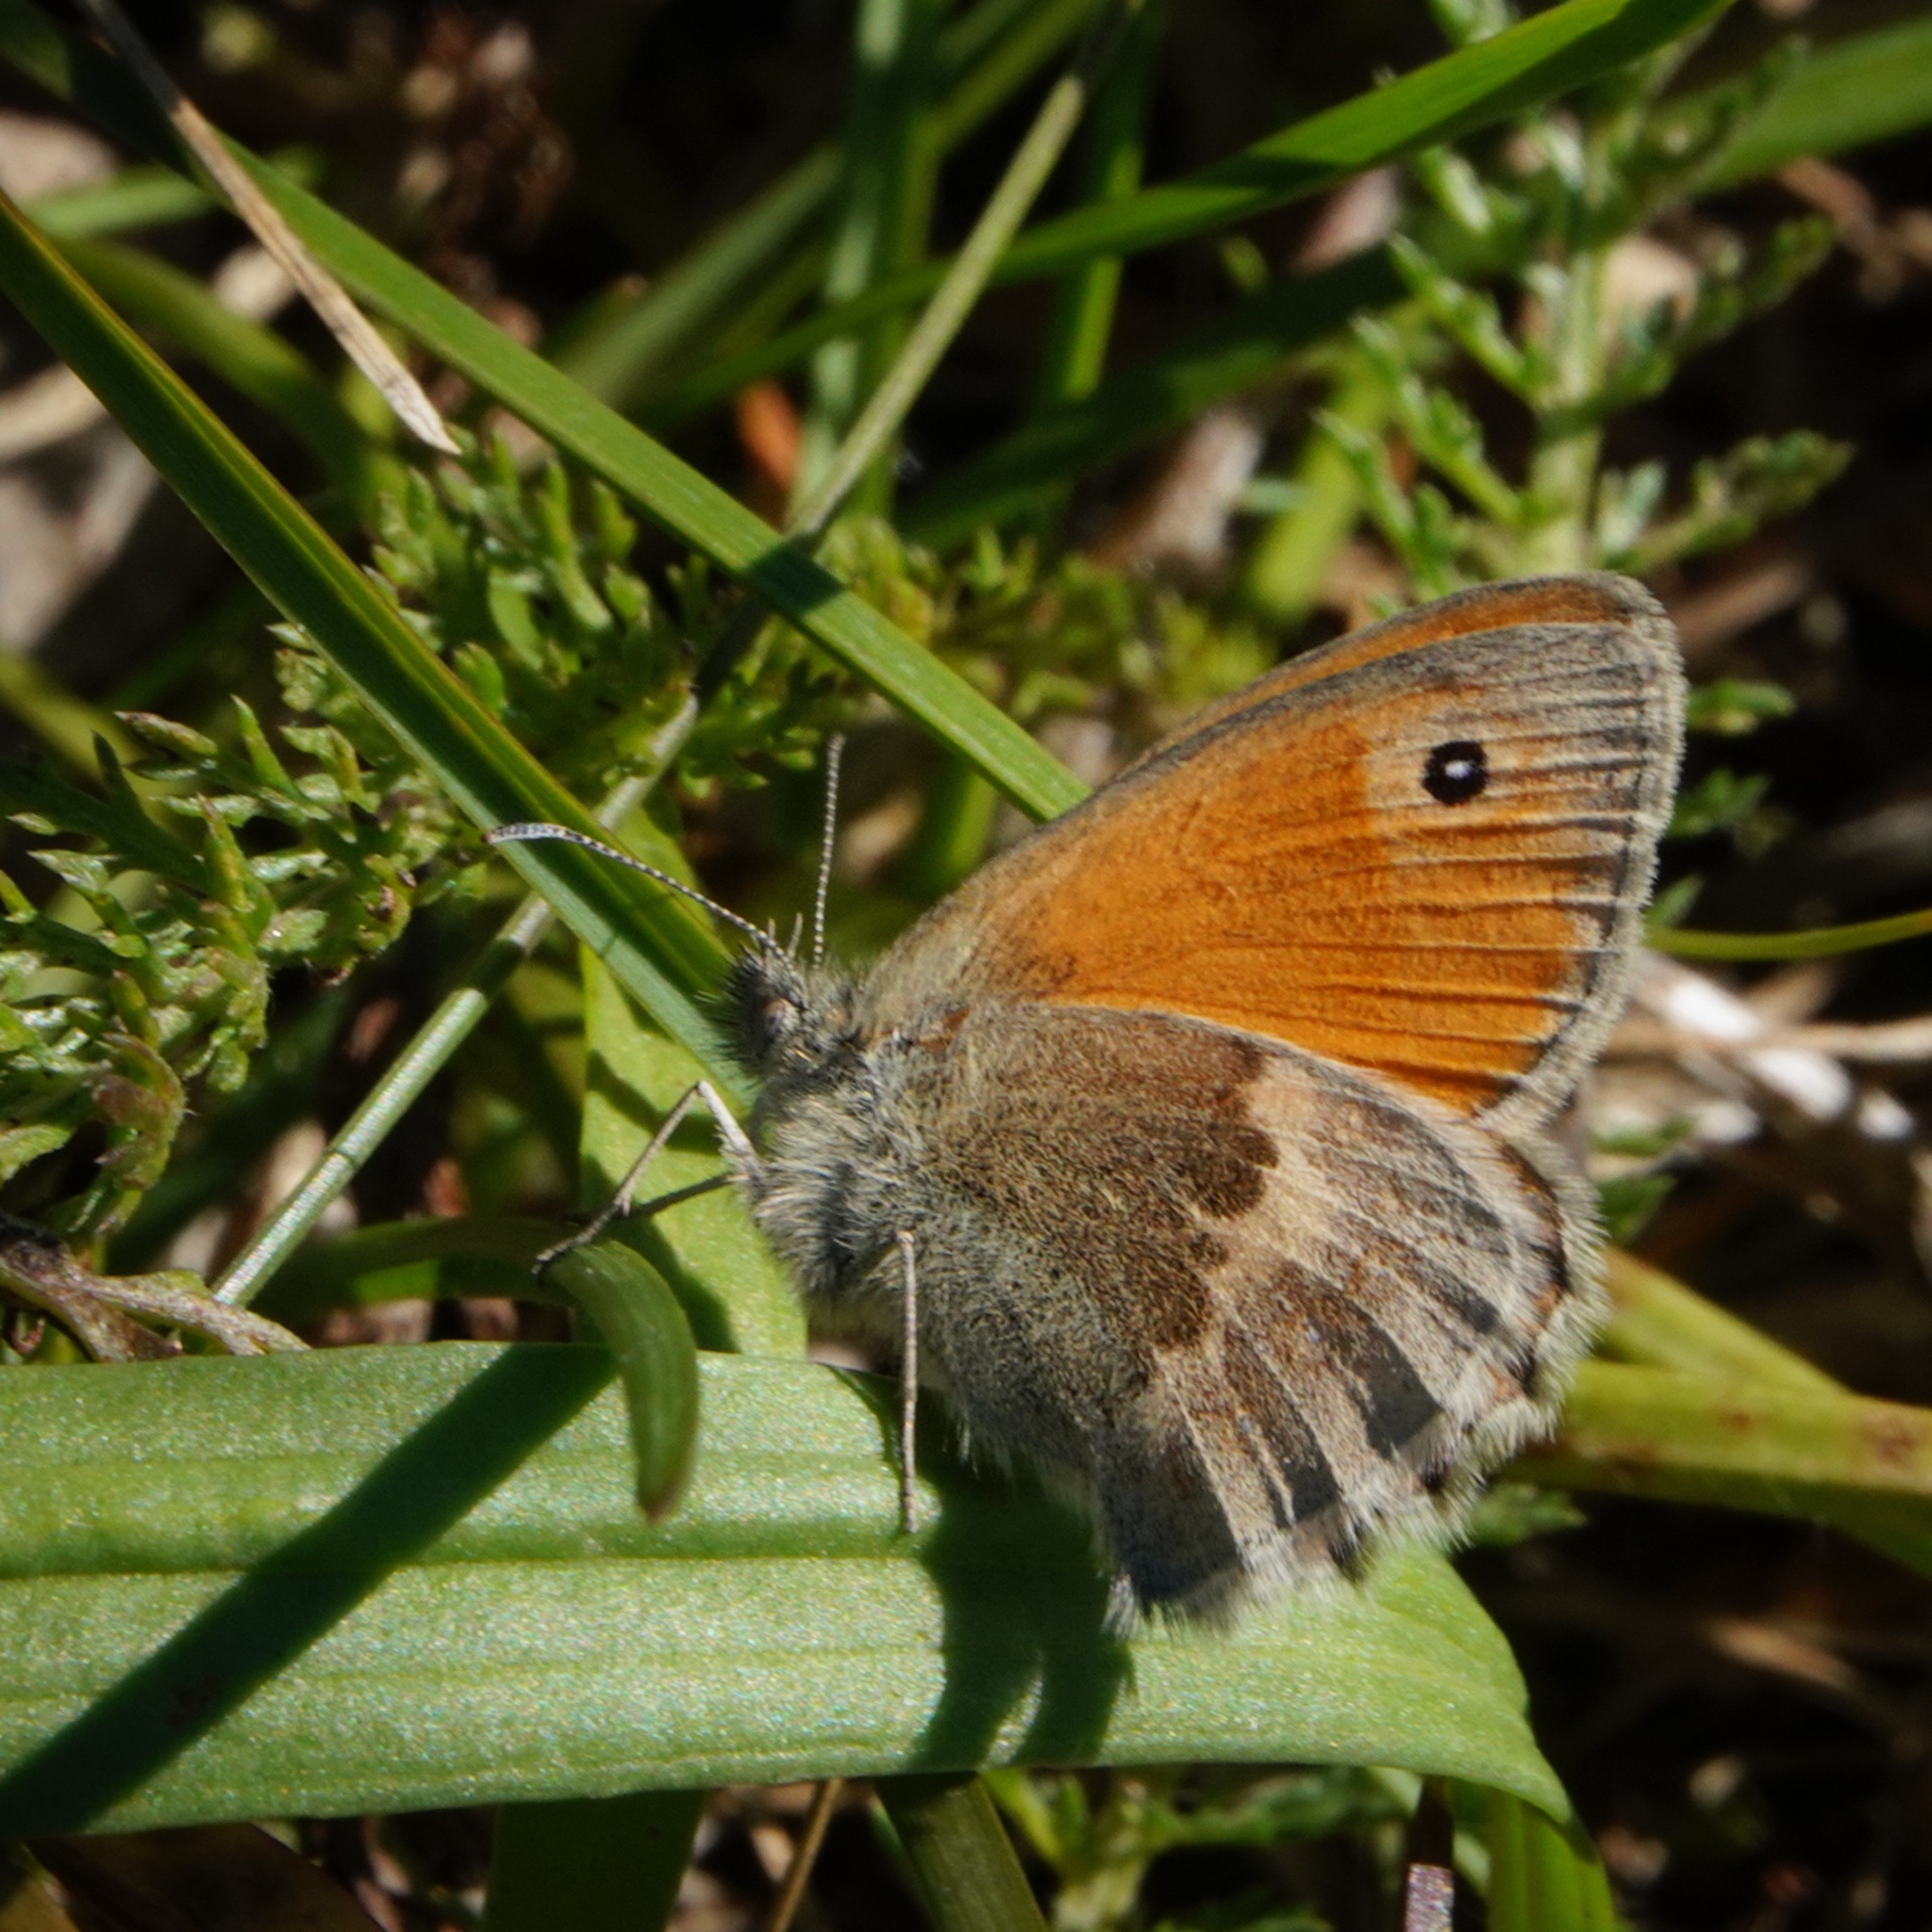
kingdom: Animalia
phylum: Arthropoda
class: Insecta
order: Lepidoptera
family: Nymphalidae
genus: Coenonympha
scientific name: Coenonympha pamphilus
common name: Small heath
